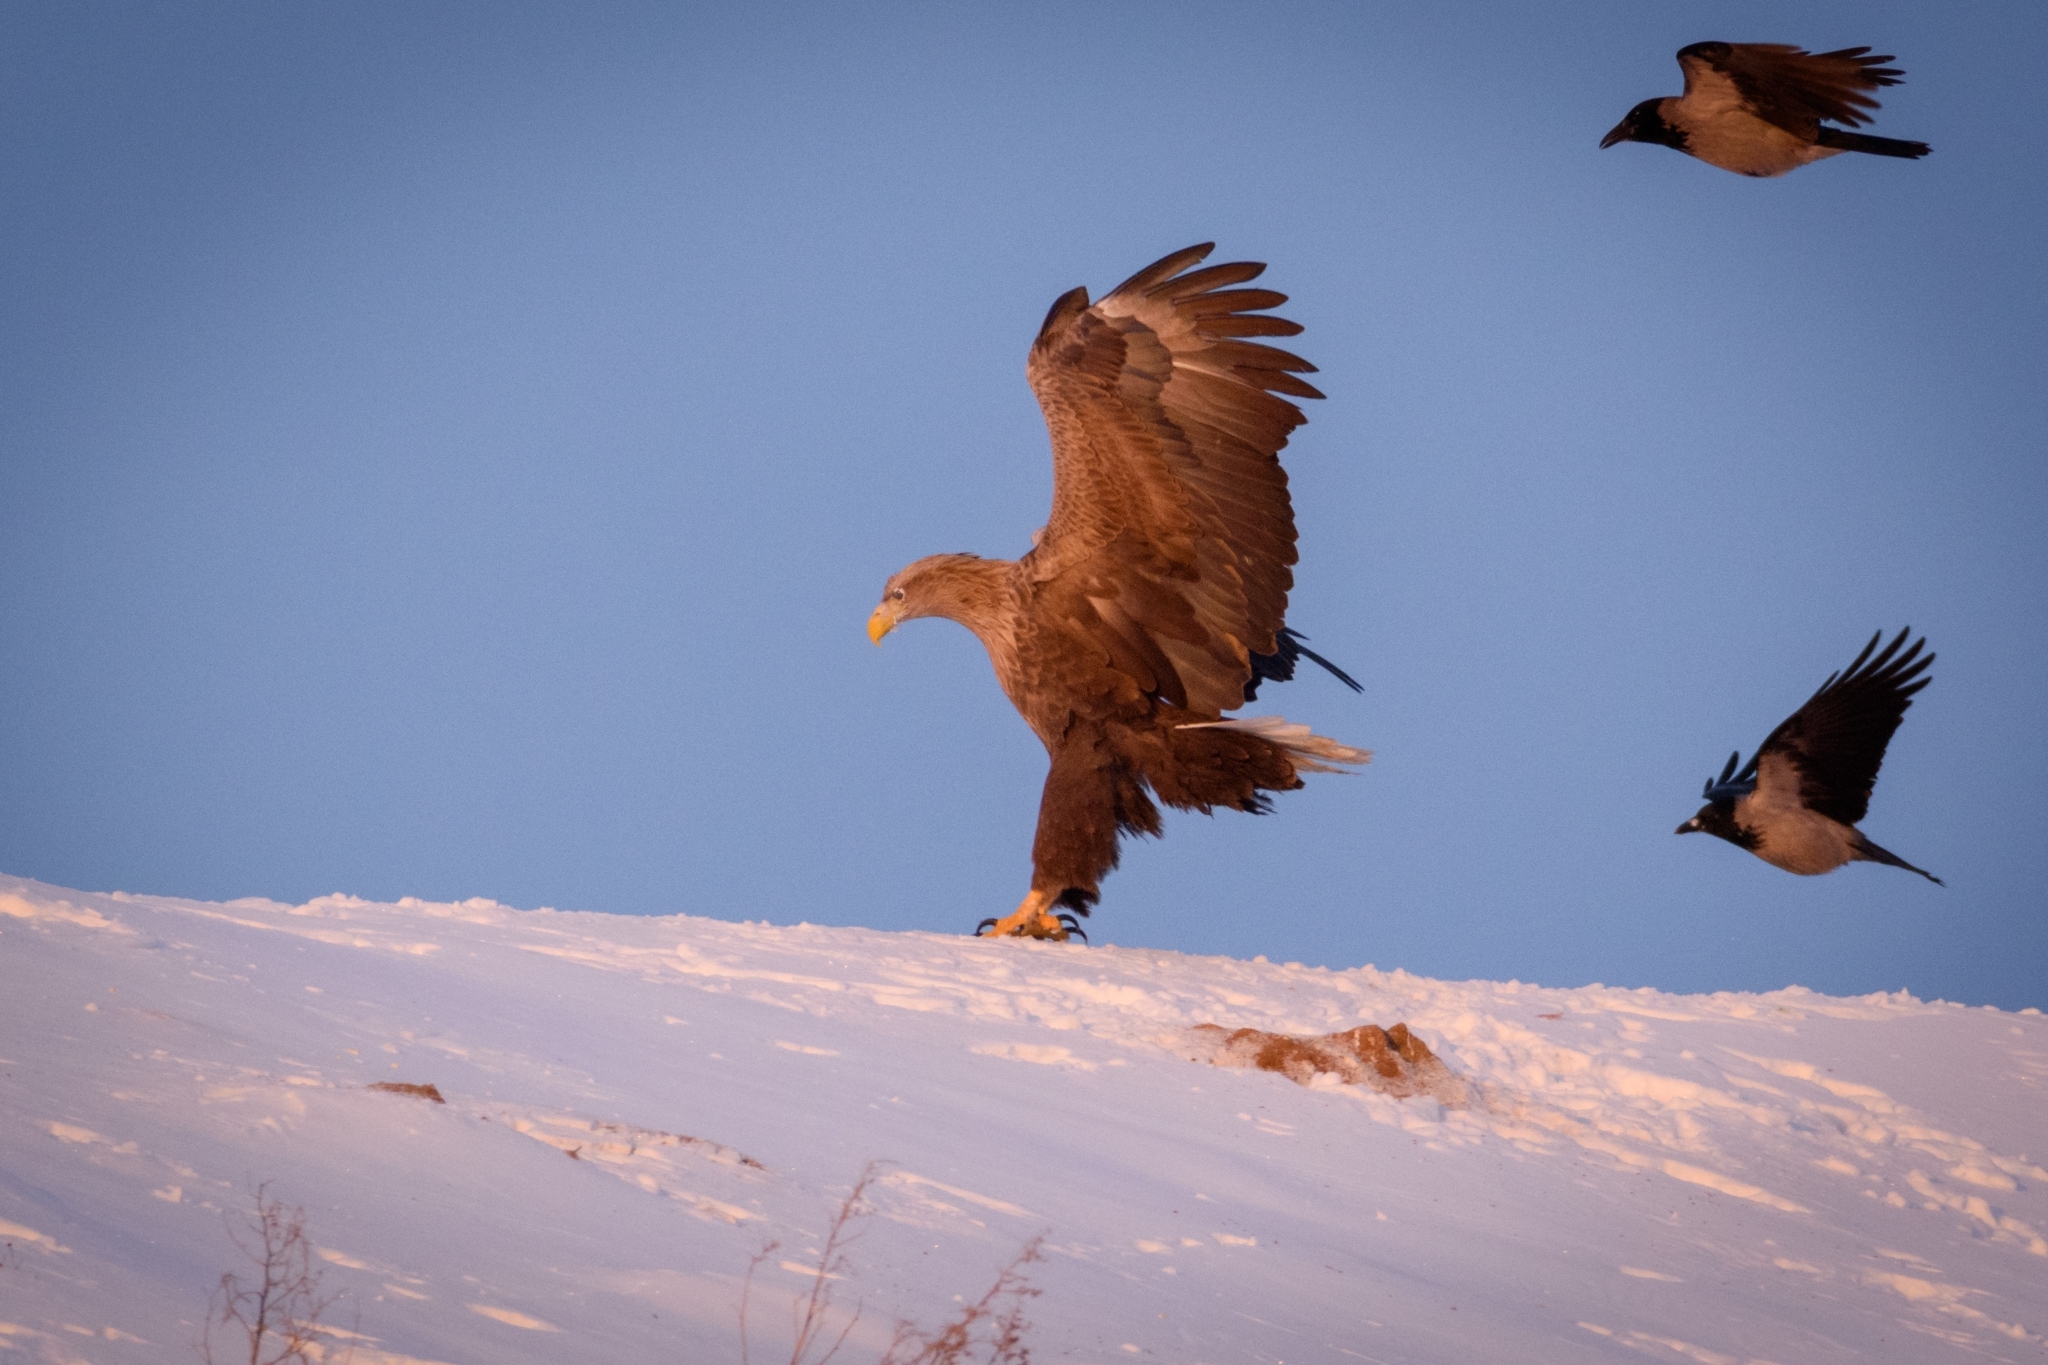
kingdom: Animalia
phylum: Chordata
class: Aves
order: Accipitriformes
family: Accipitridae
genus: Haliaeetus
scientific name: Haliaeetus albicilla
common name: White-tailed eagle
